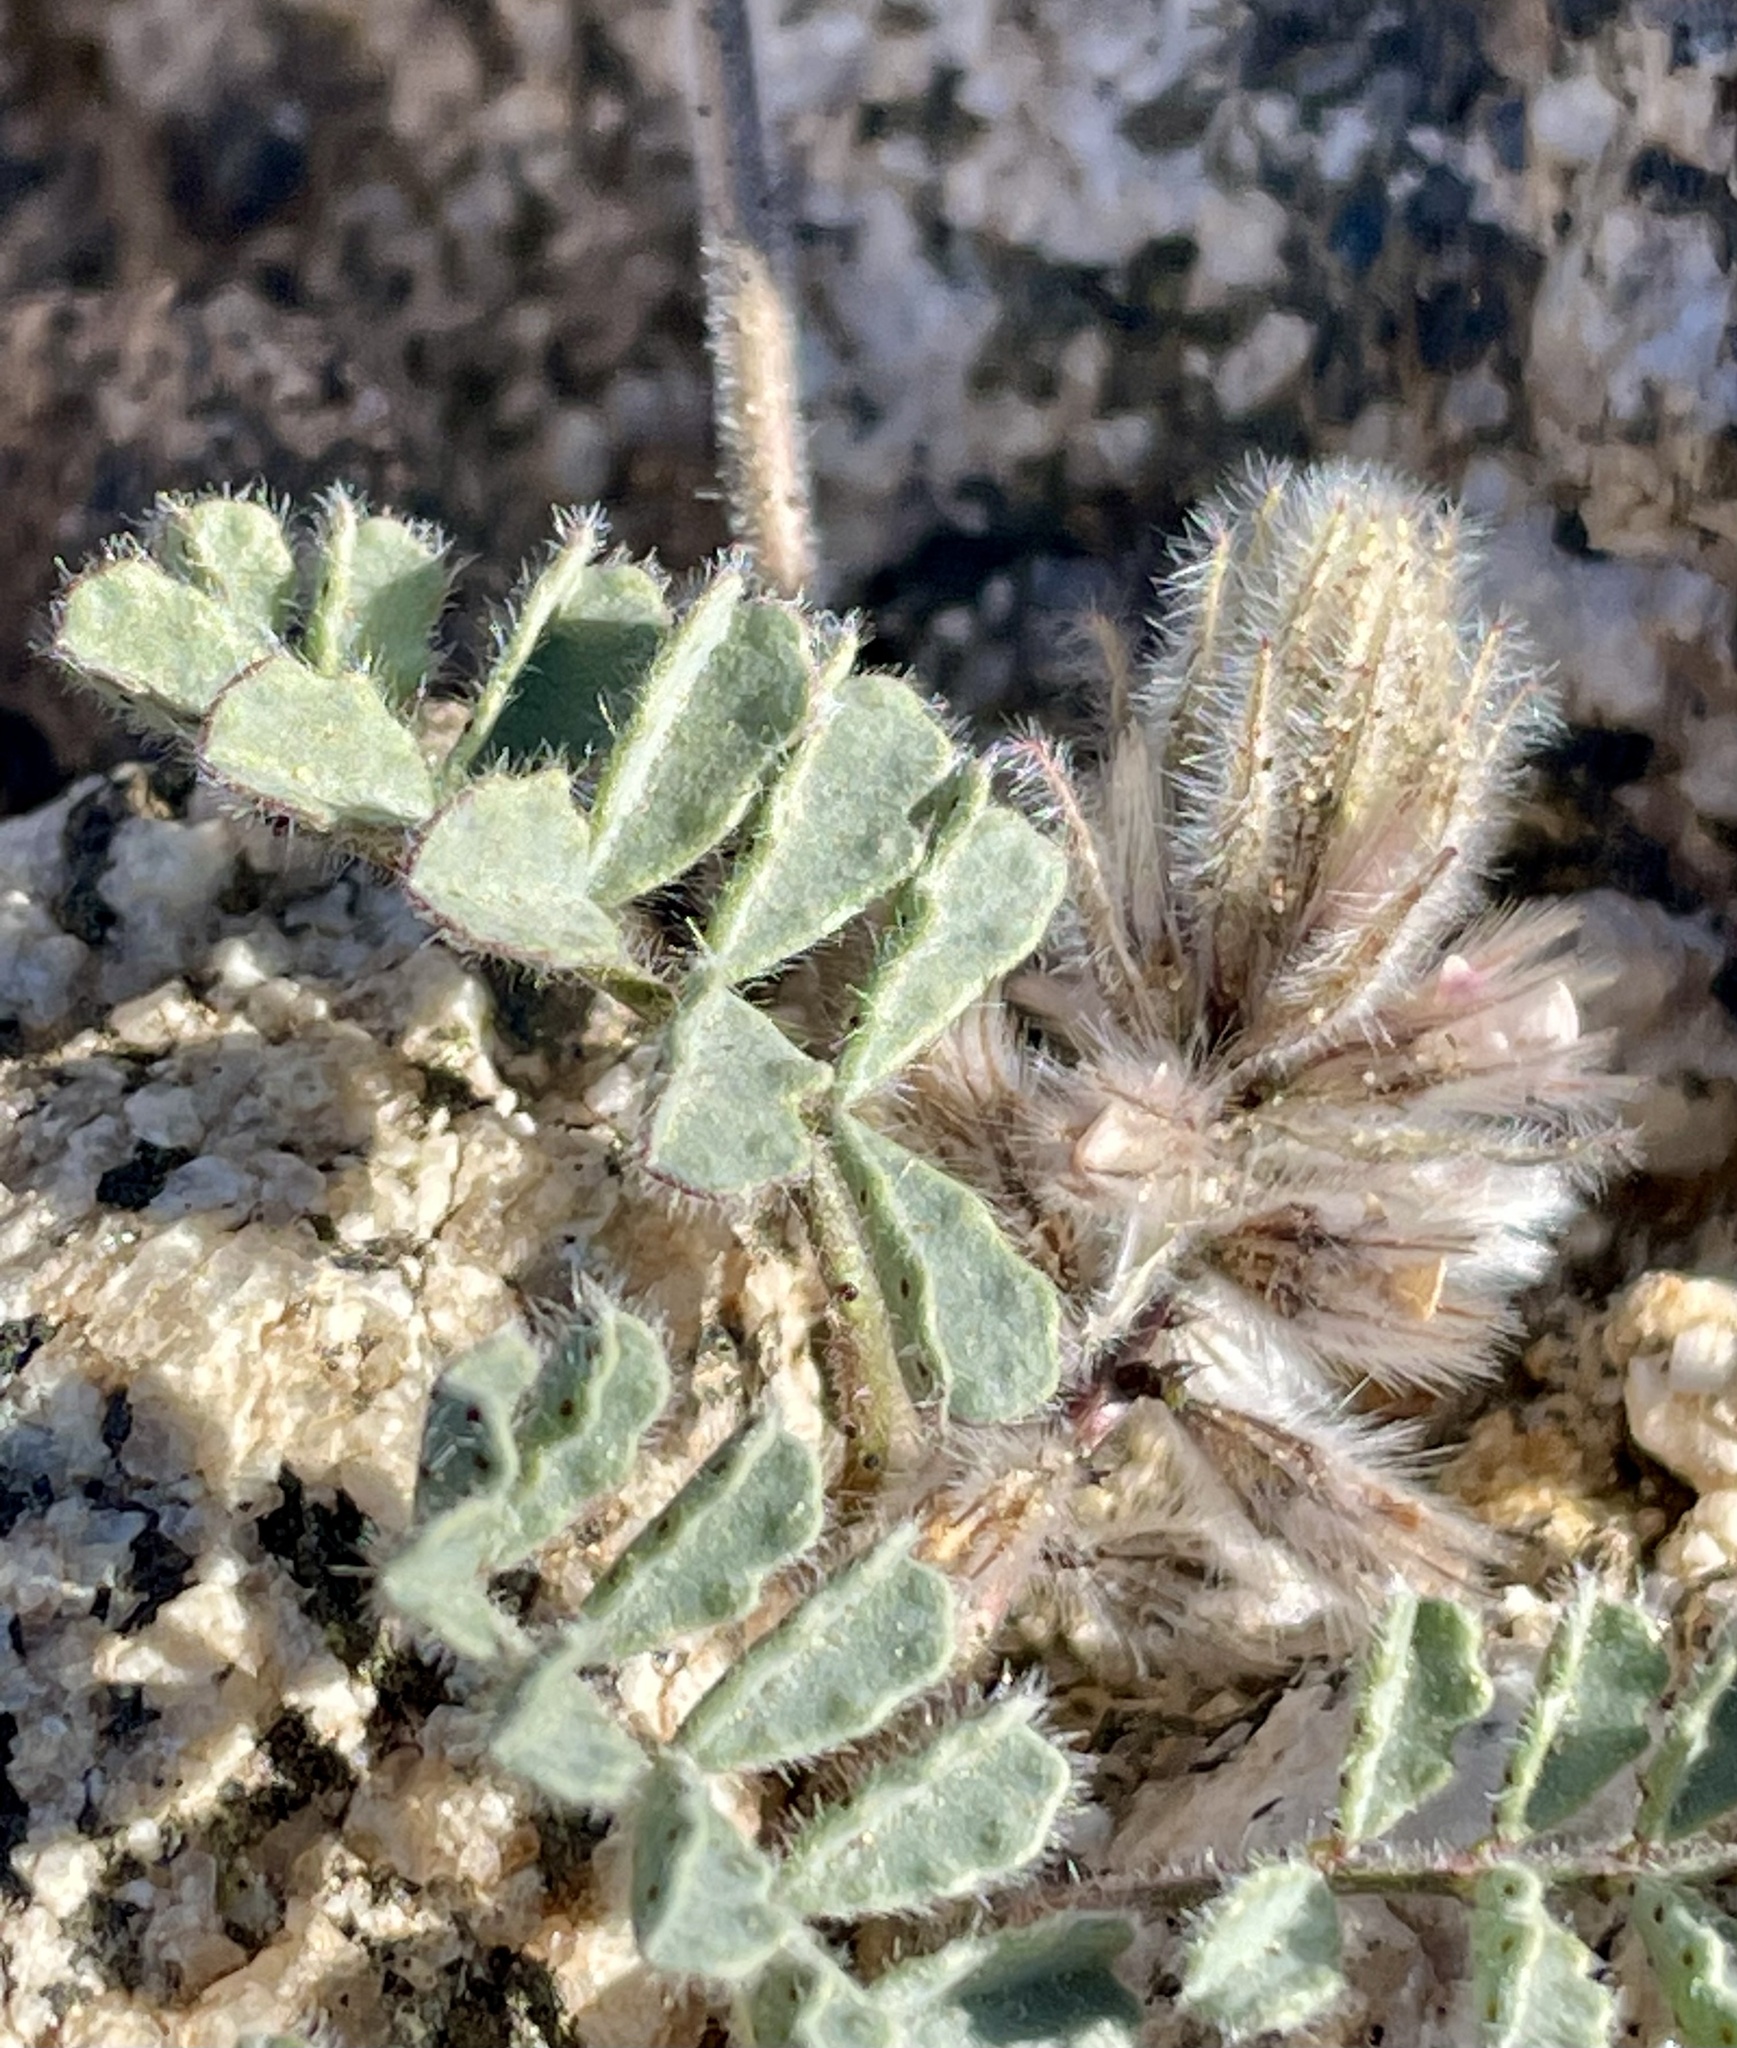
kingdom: Plantae
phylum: Tracheophyta
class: Magnoliopsida
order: Fabales
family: Fabaceae
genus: Dalea
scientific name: Dalea mollissima
